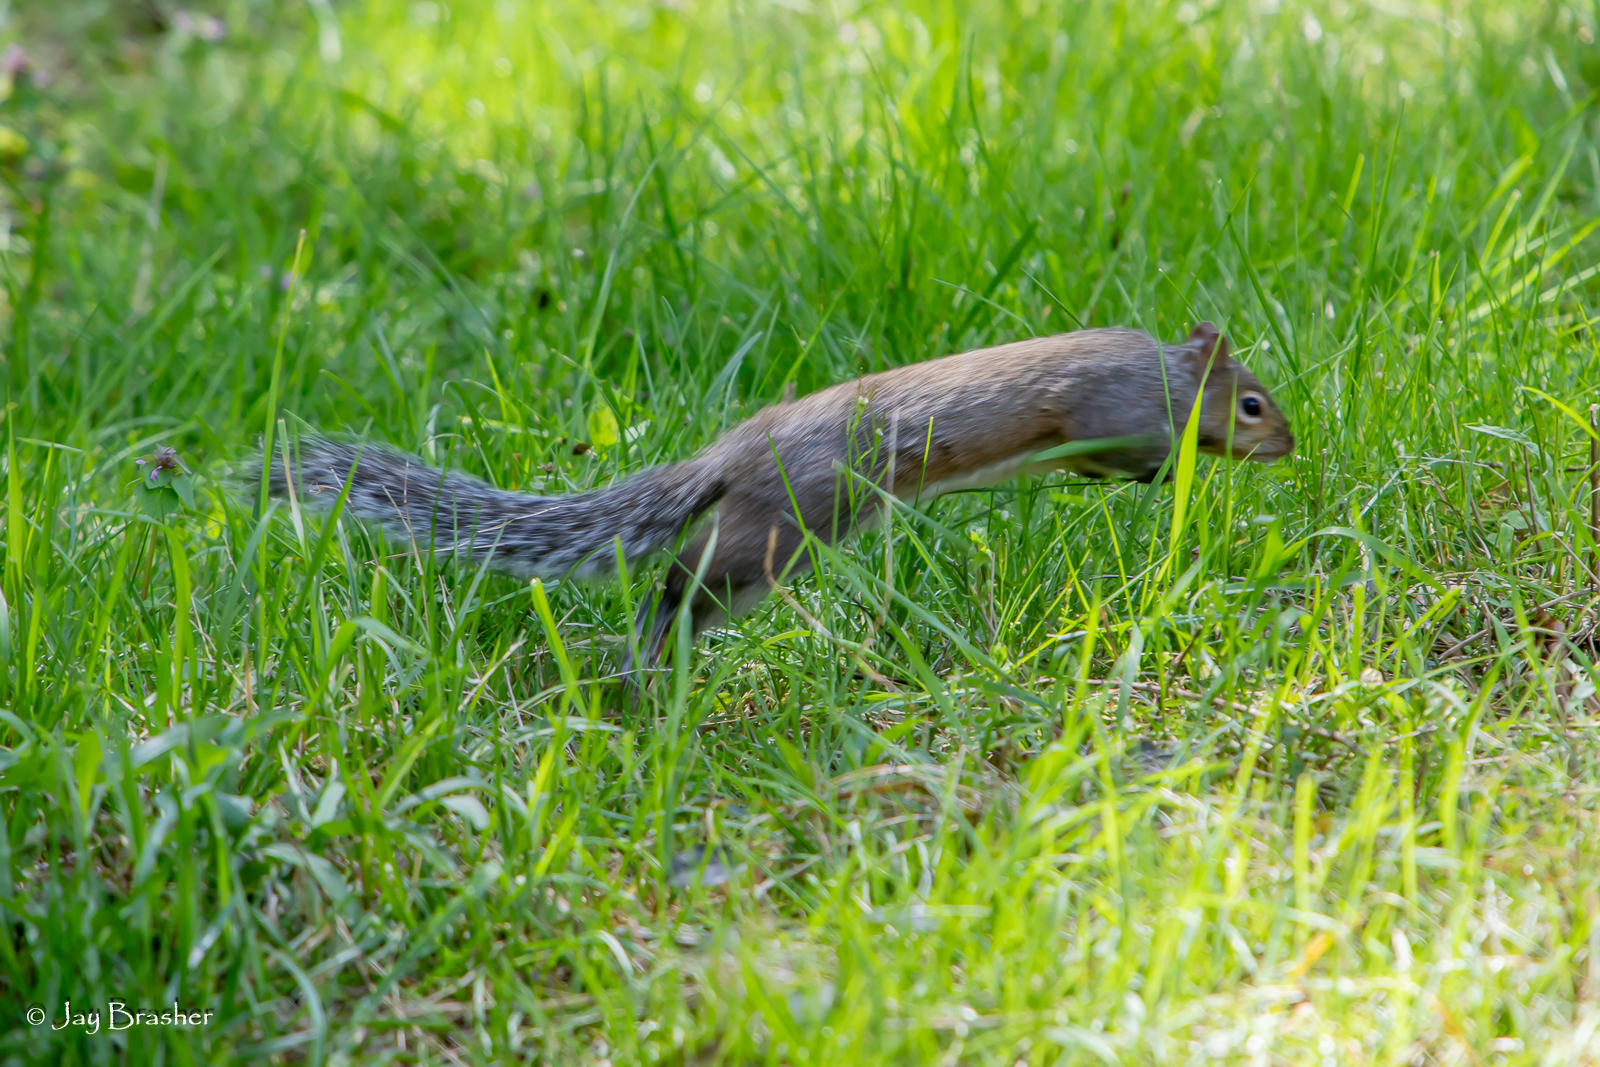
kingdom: Animalia
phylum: Chordata
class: Mammalia
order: Rodentia
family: Sciuridae
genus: Sciurus
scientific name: Sciurus carolinensis
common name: Eastern gray squirrel
